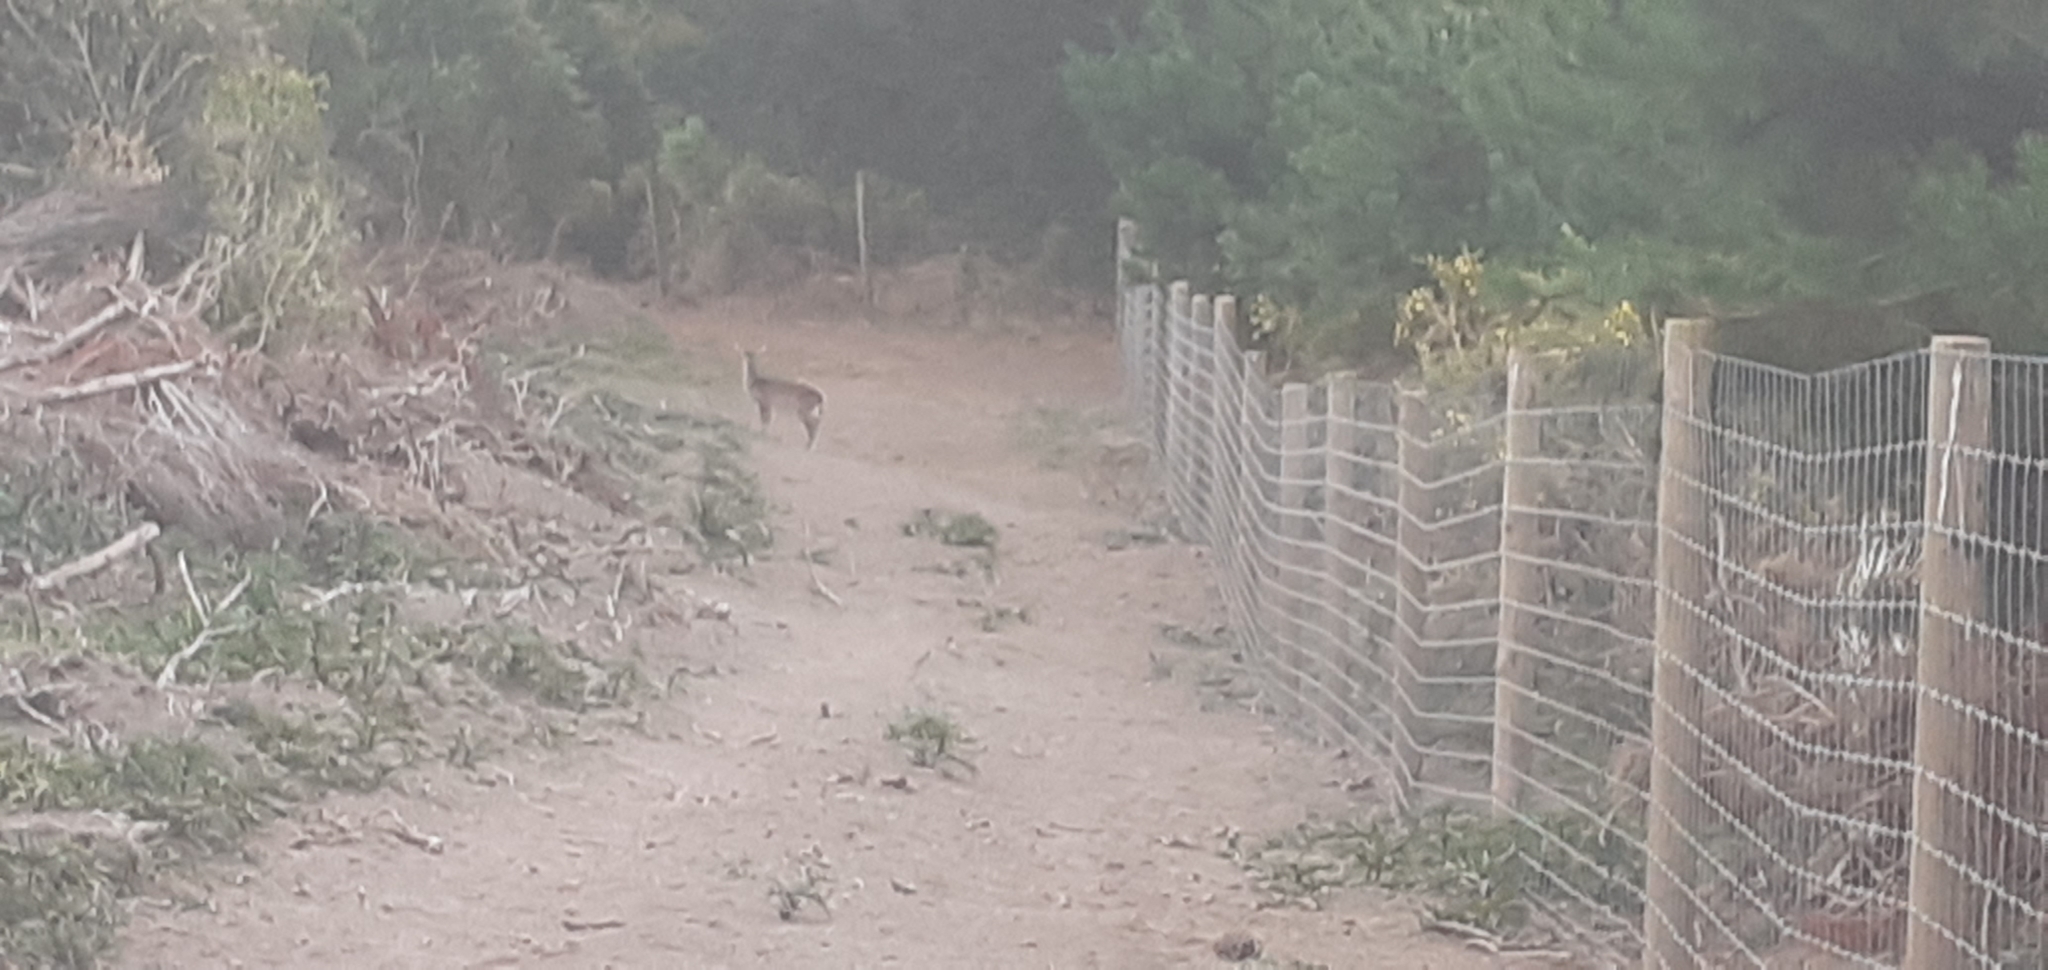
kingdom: Animalia
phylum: Chordata
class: Mammalia
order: Artiodactyla
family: Cervidae
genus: Dama
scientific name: Dama dama
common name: Fallow deer
